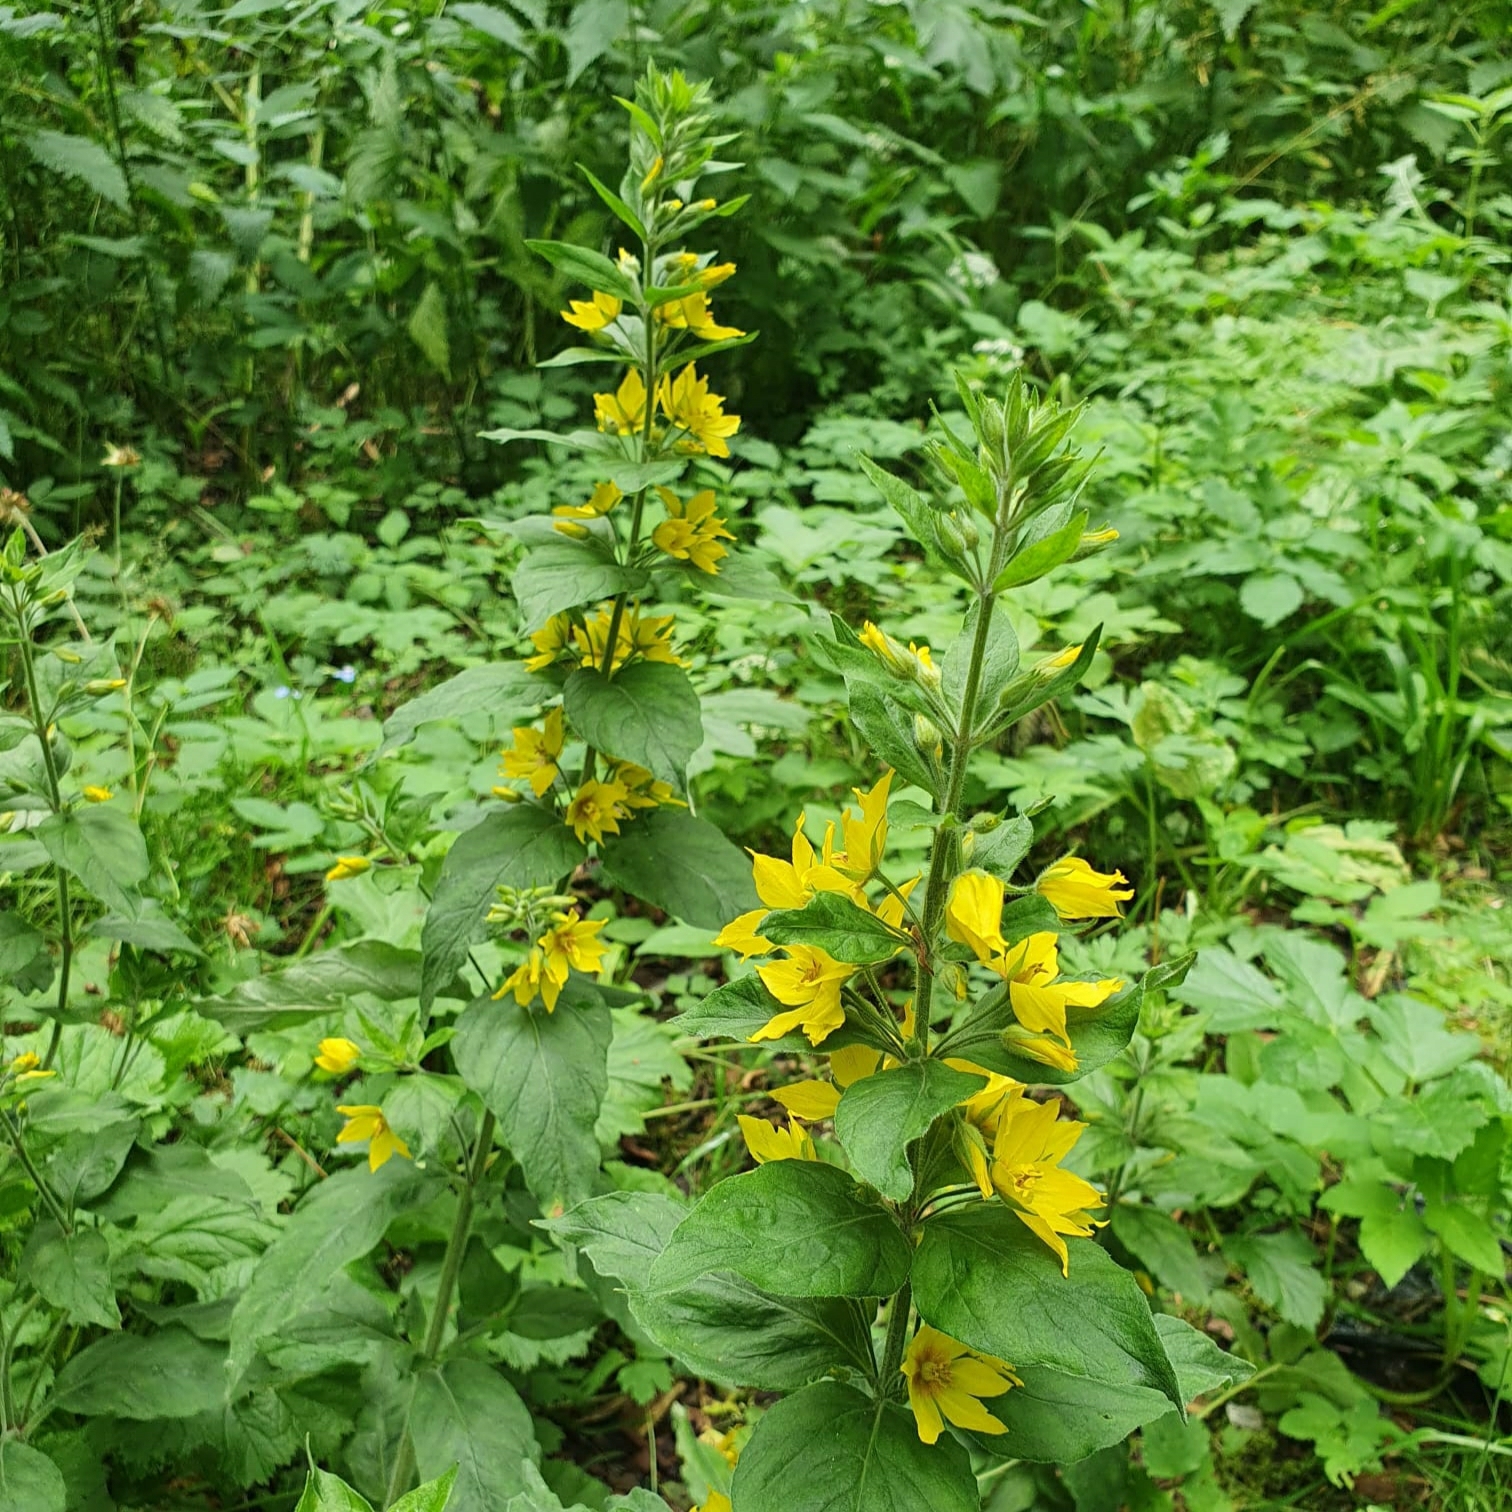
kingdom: Plantae
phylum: Tracheophyta
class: Magnoliopsida
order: Ericales
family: Primulaceae
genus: Lysimachia
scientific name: Lysimachia punctata
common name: Dotted loosestrife
